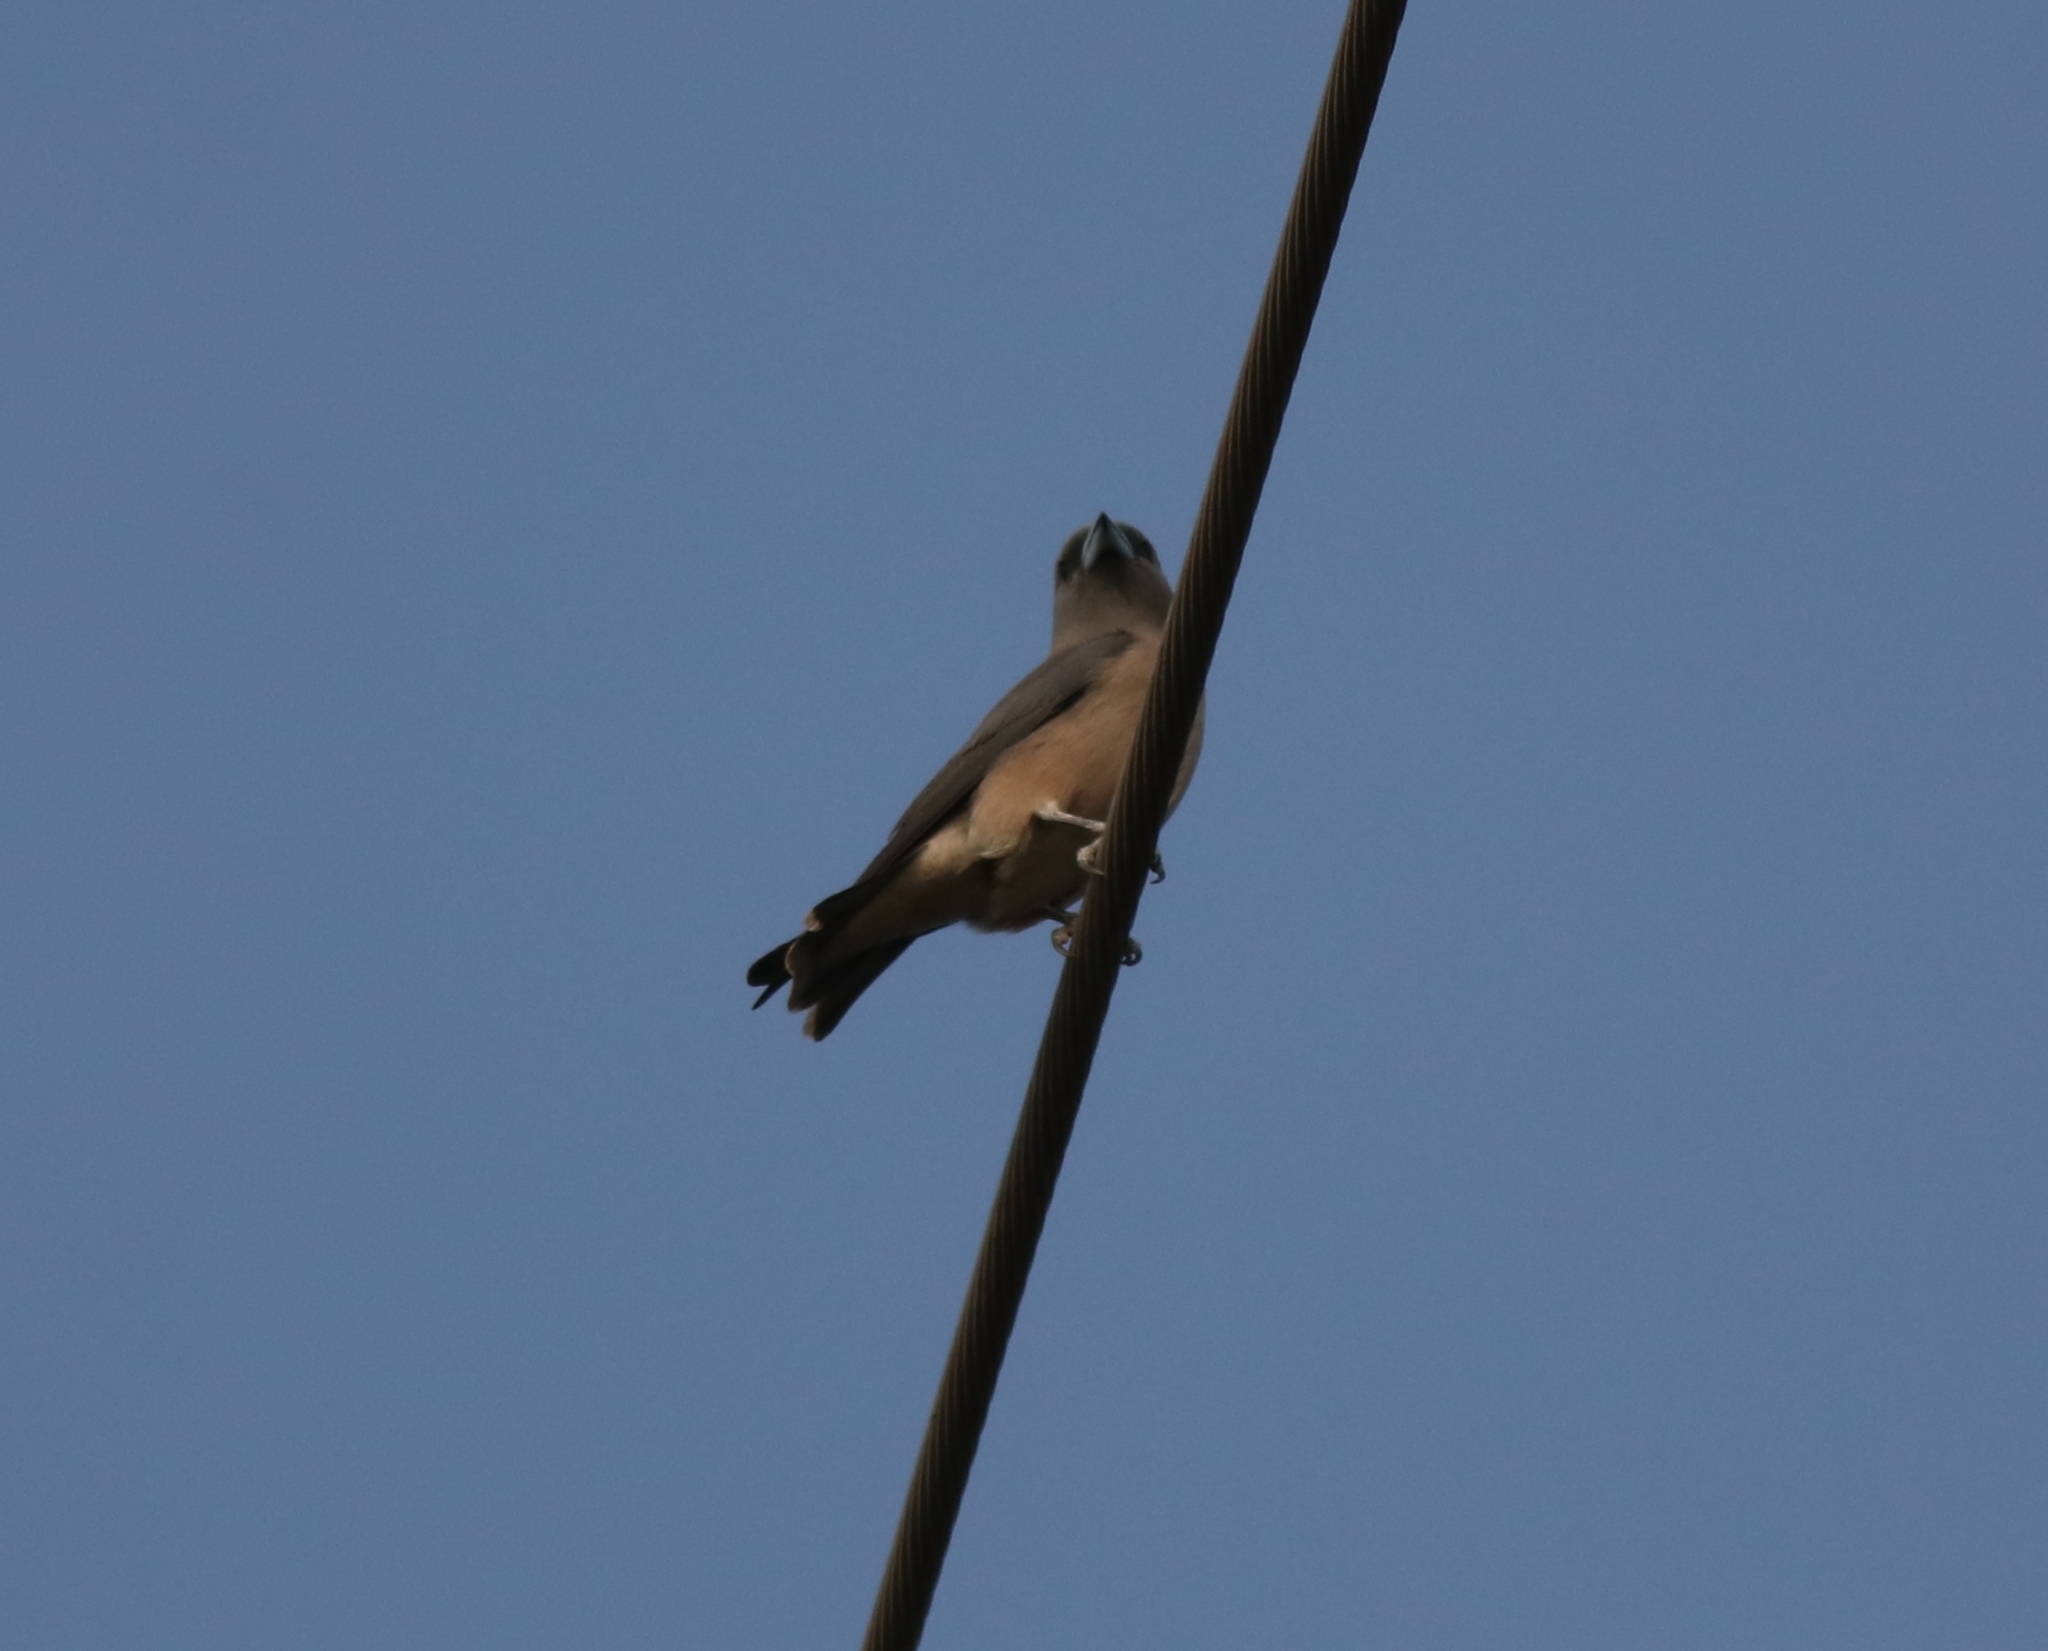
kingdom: Animalia
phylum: Chordata
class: Aves
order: Passeriformes
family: Artamidae
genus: Artamus
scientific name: Artamus fuscus
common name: Ashy woodswallow
